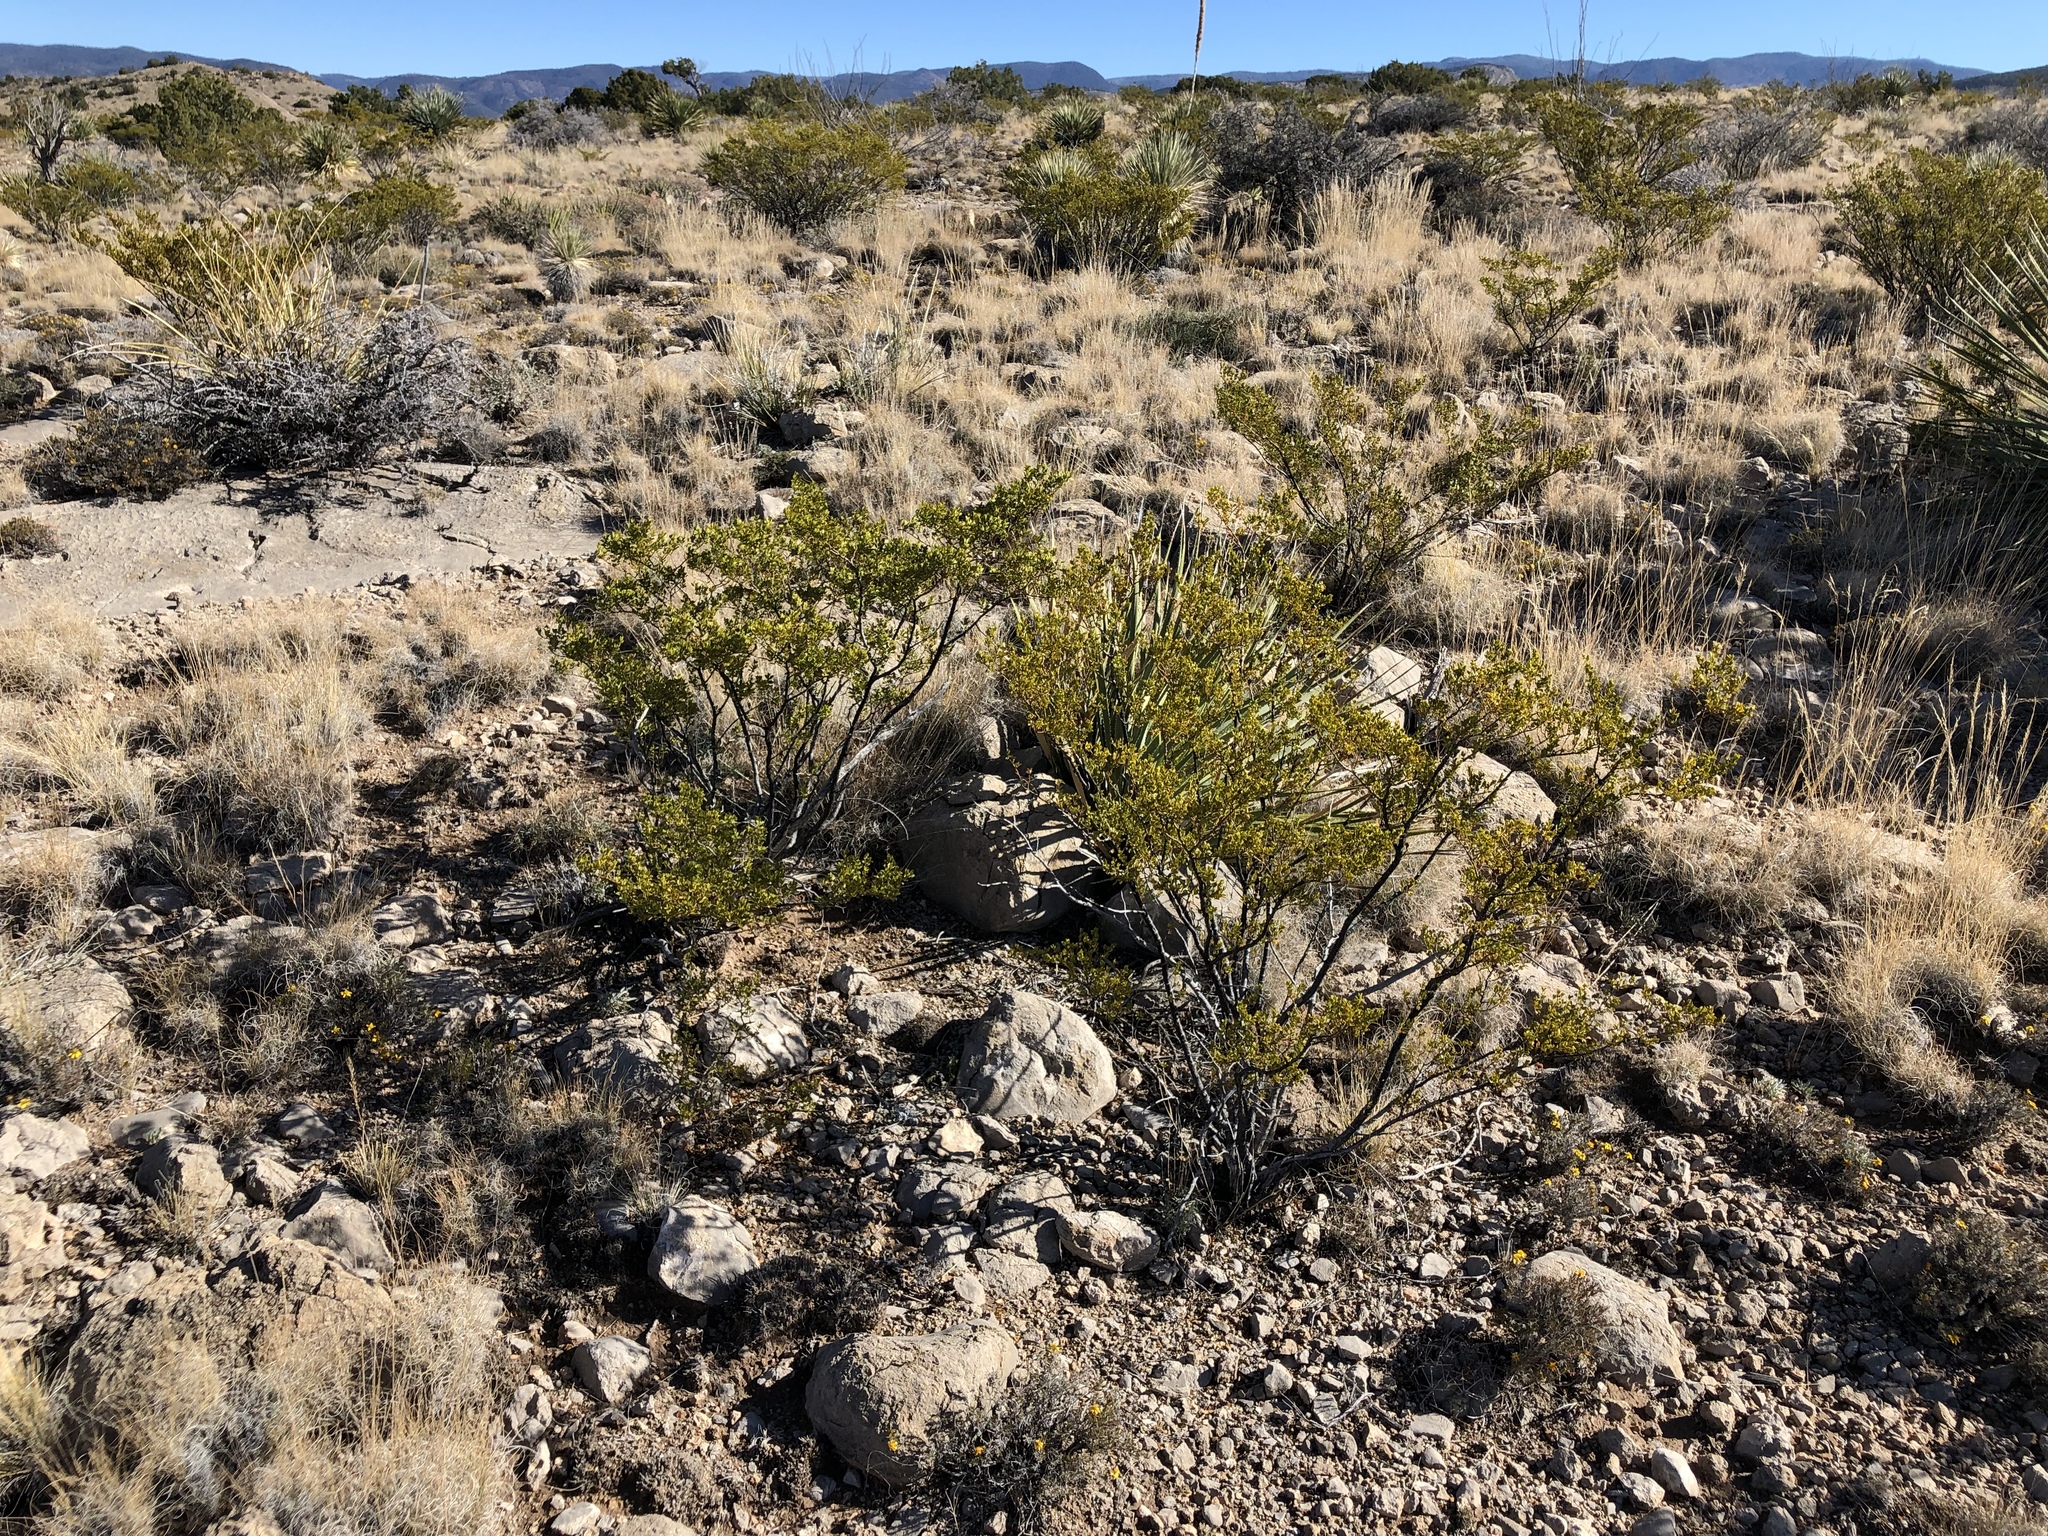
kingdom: Plantae
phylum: Tracheophyta
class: Magnoliopsida
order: Zygophyllales
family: Zygophyllaceae
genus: Larrea
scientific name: Larrea tridentata
